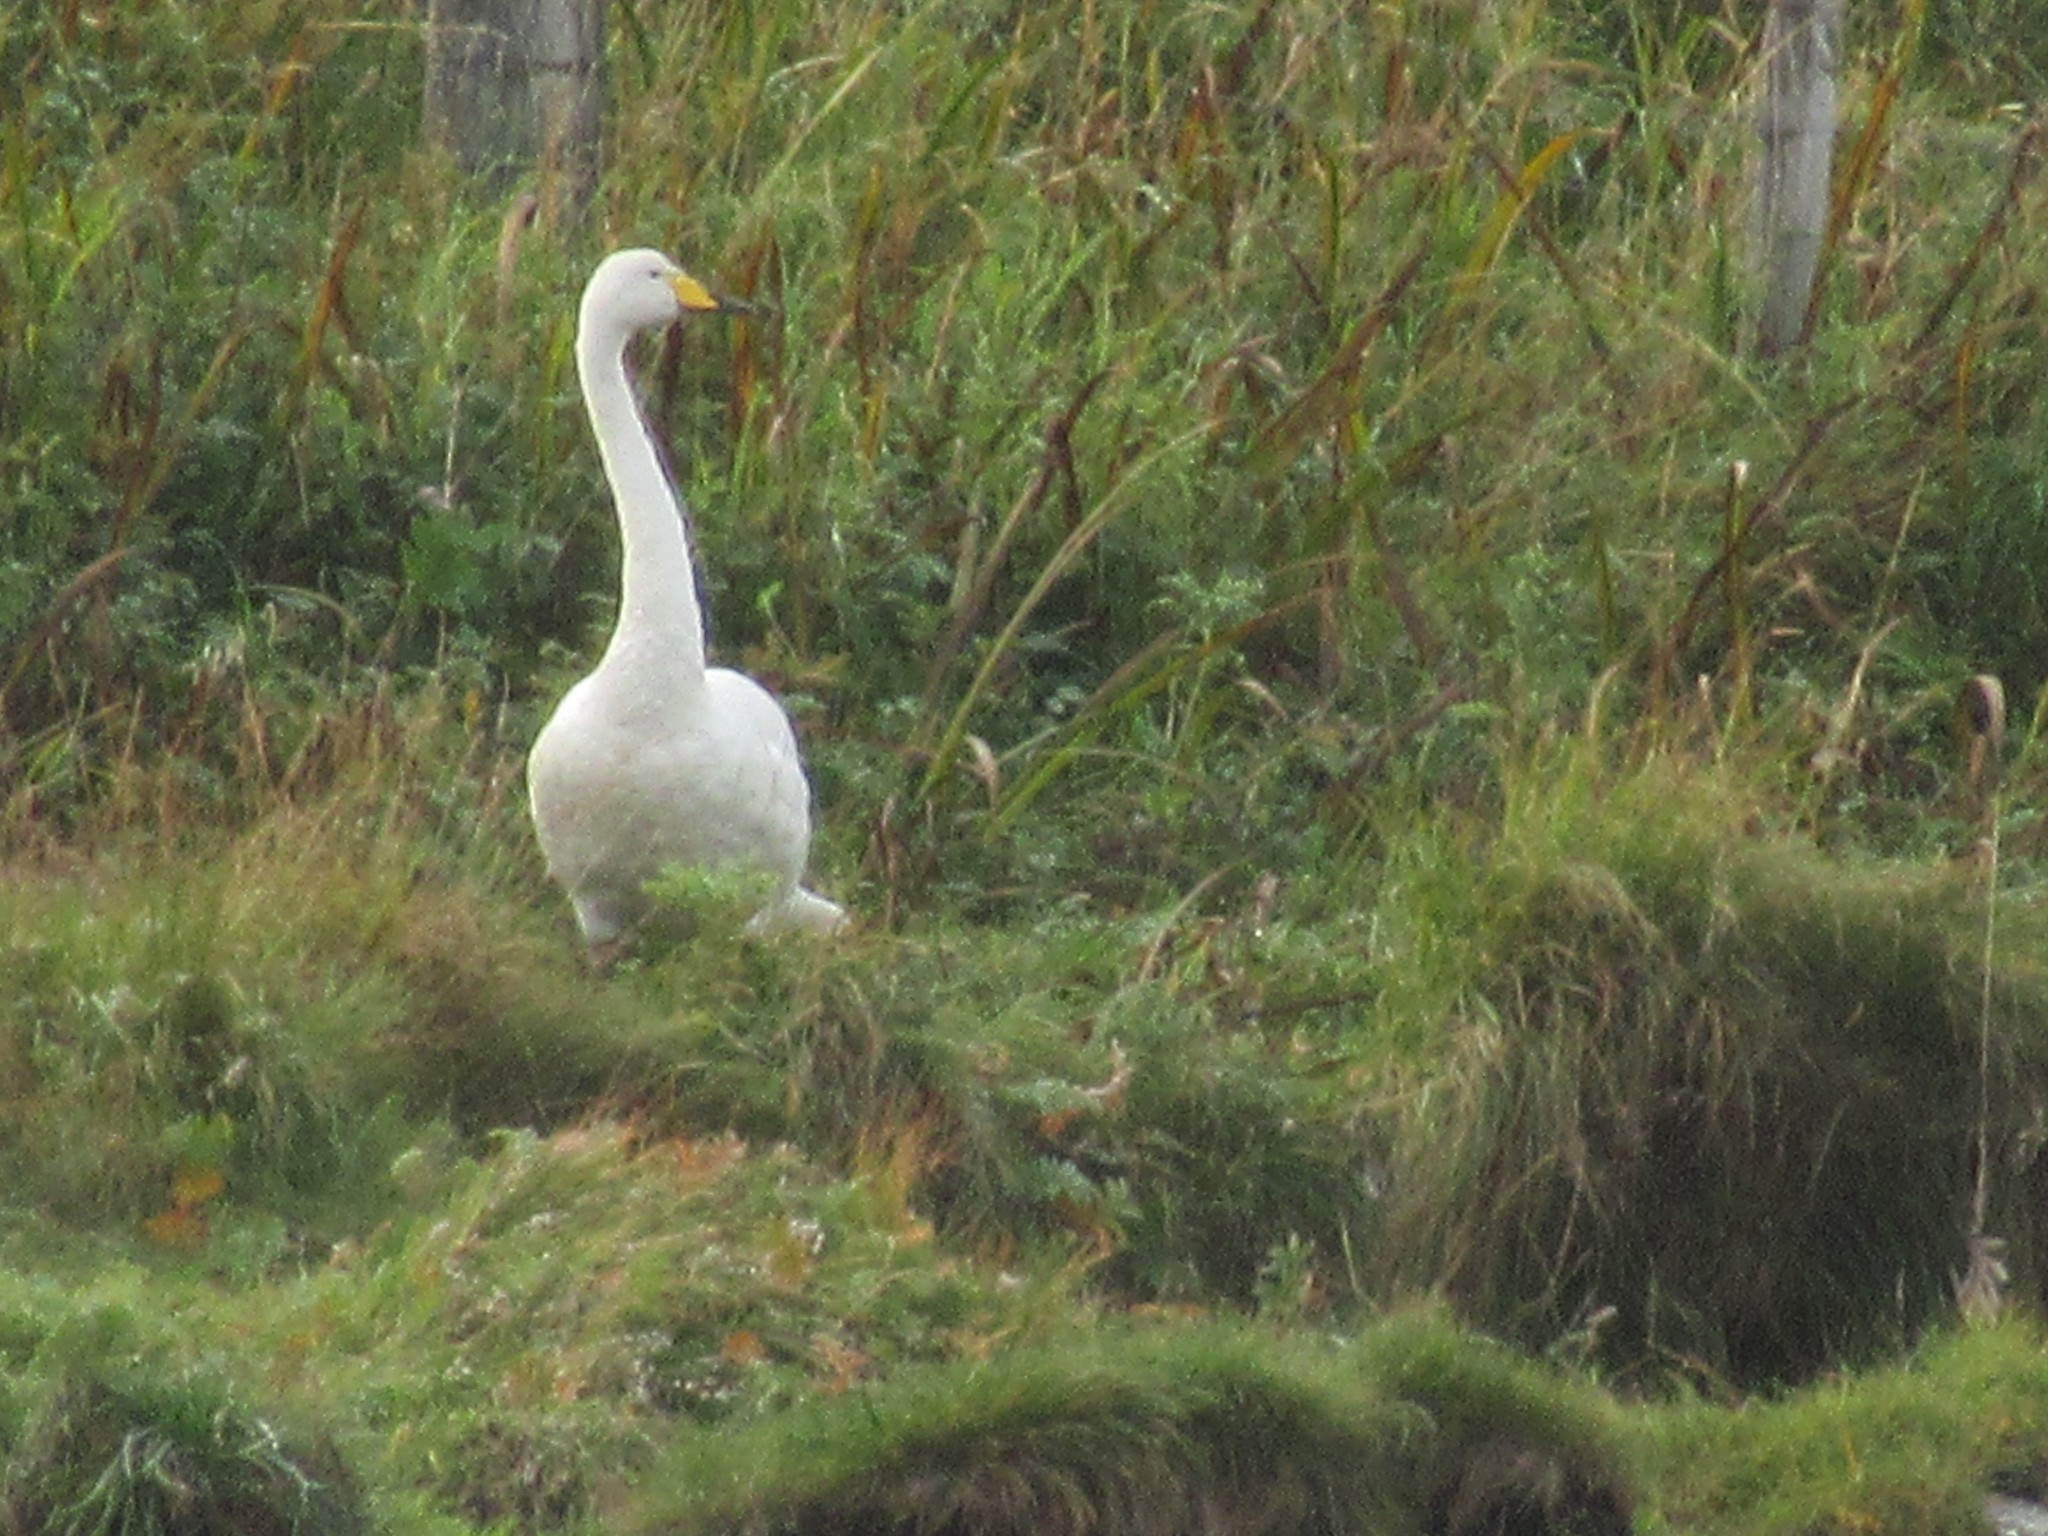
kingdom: Animalia
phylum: Chordata
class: Aves
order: Anseriformes
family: Anatidae
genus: Cygnus
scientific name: Cygnus cygnus
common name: Whooper swan
